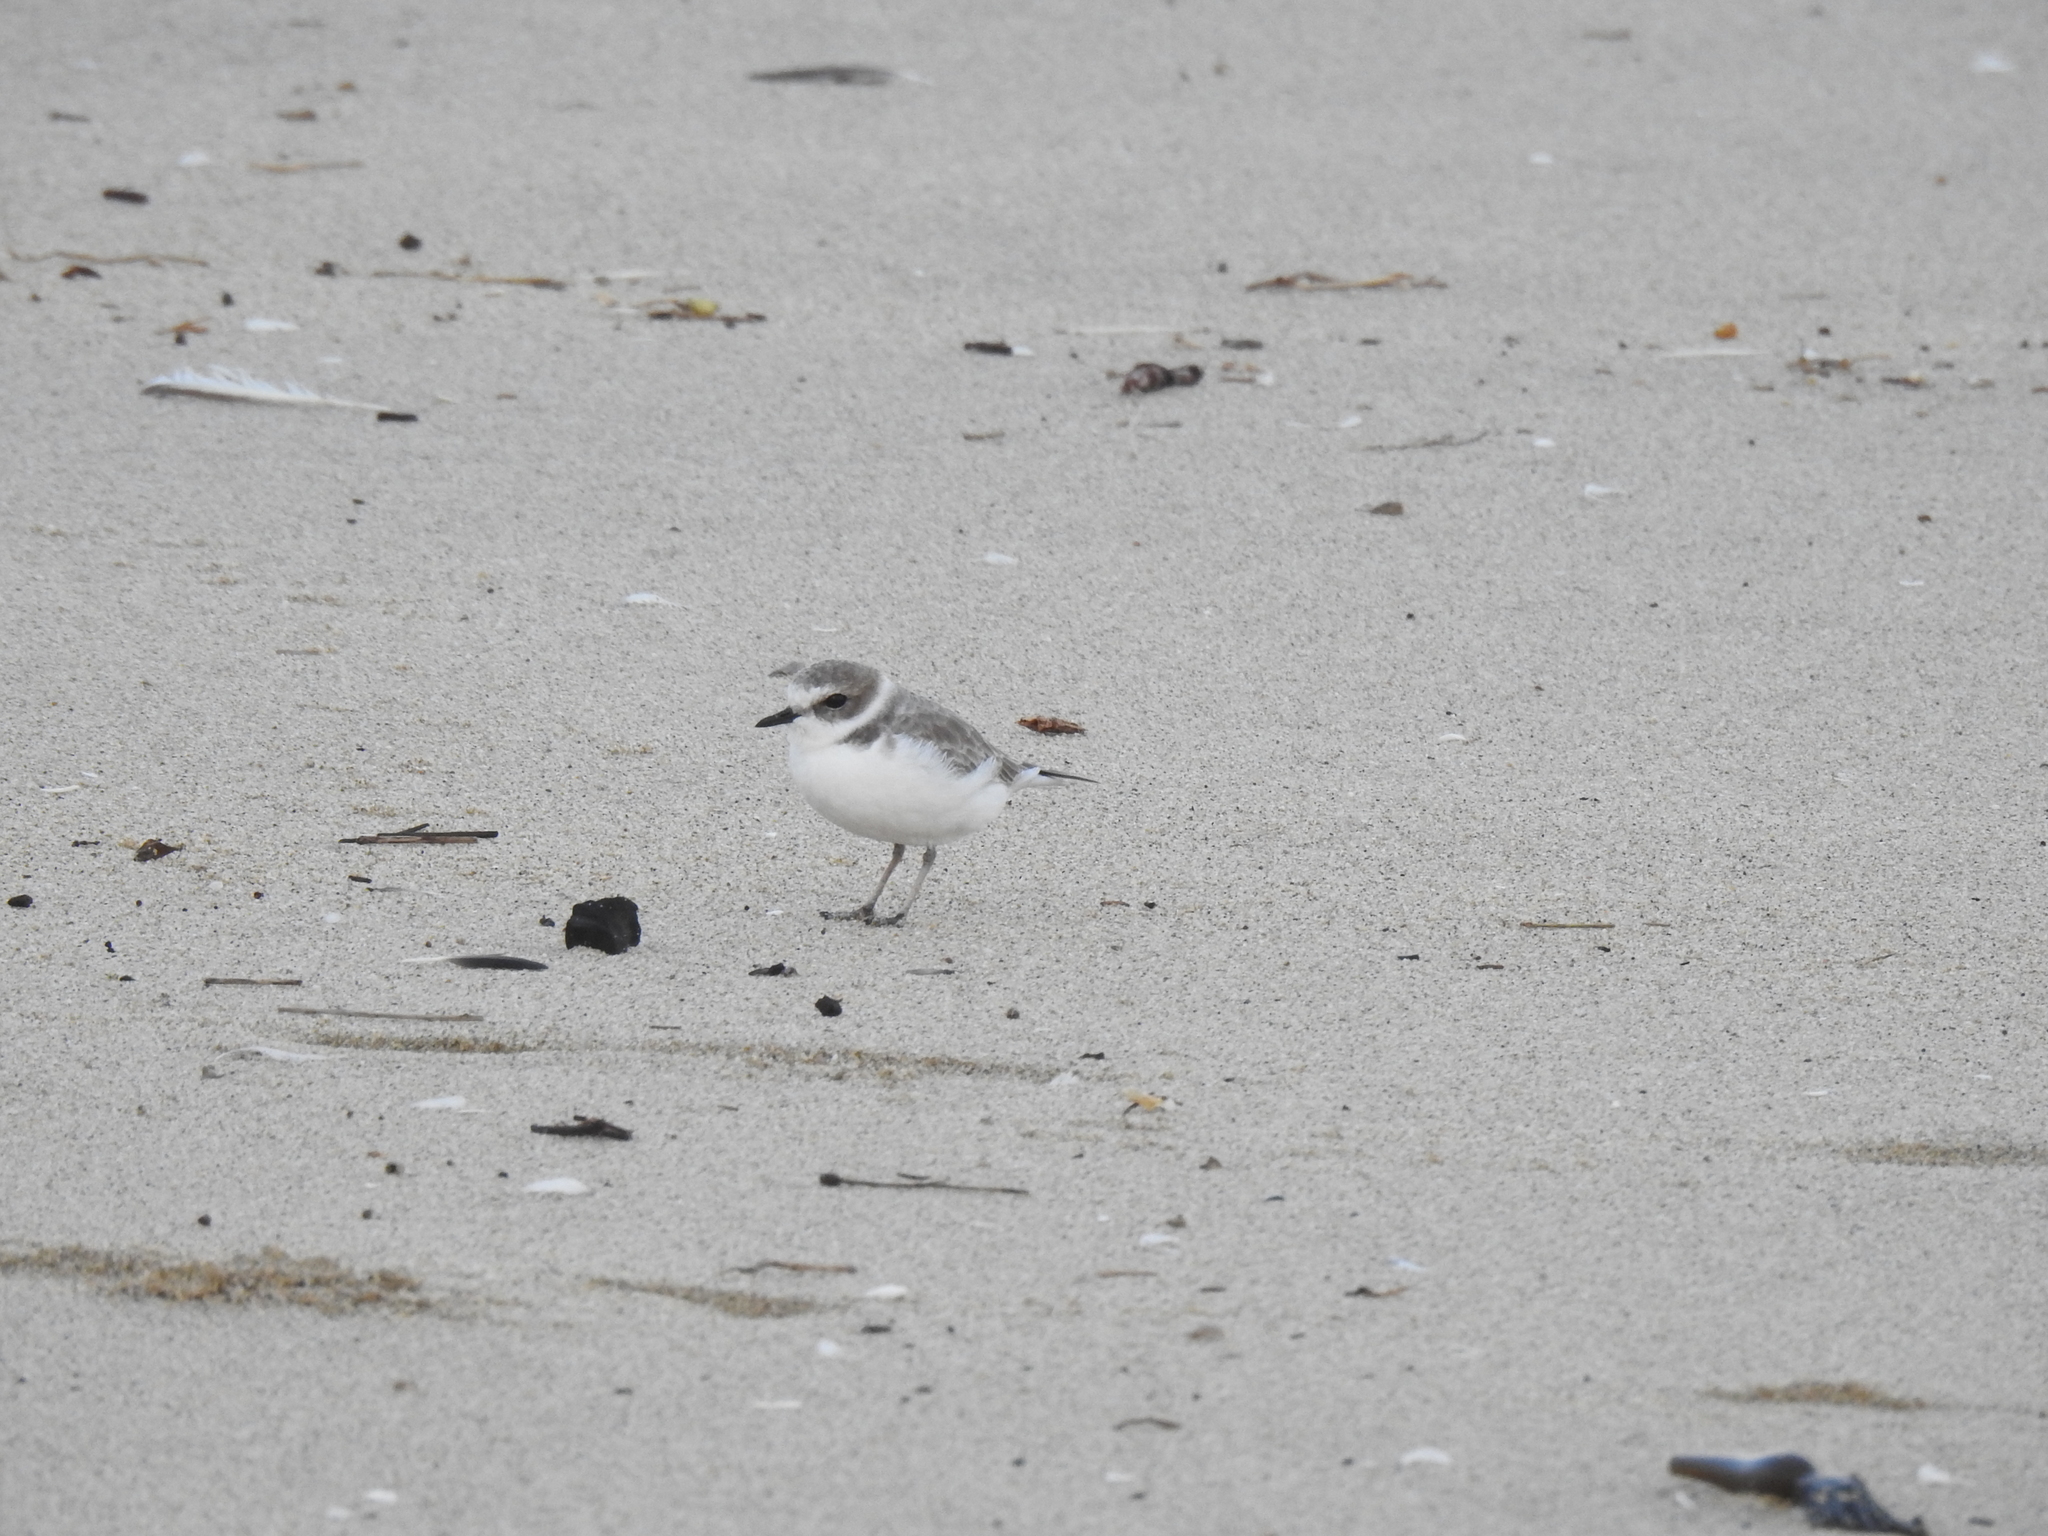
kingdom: Animalia
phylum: Chordata
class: Aves
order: Charadriiformes
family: Charadriidae
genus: Anarhynchus
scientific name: Anarhynchus
